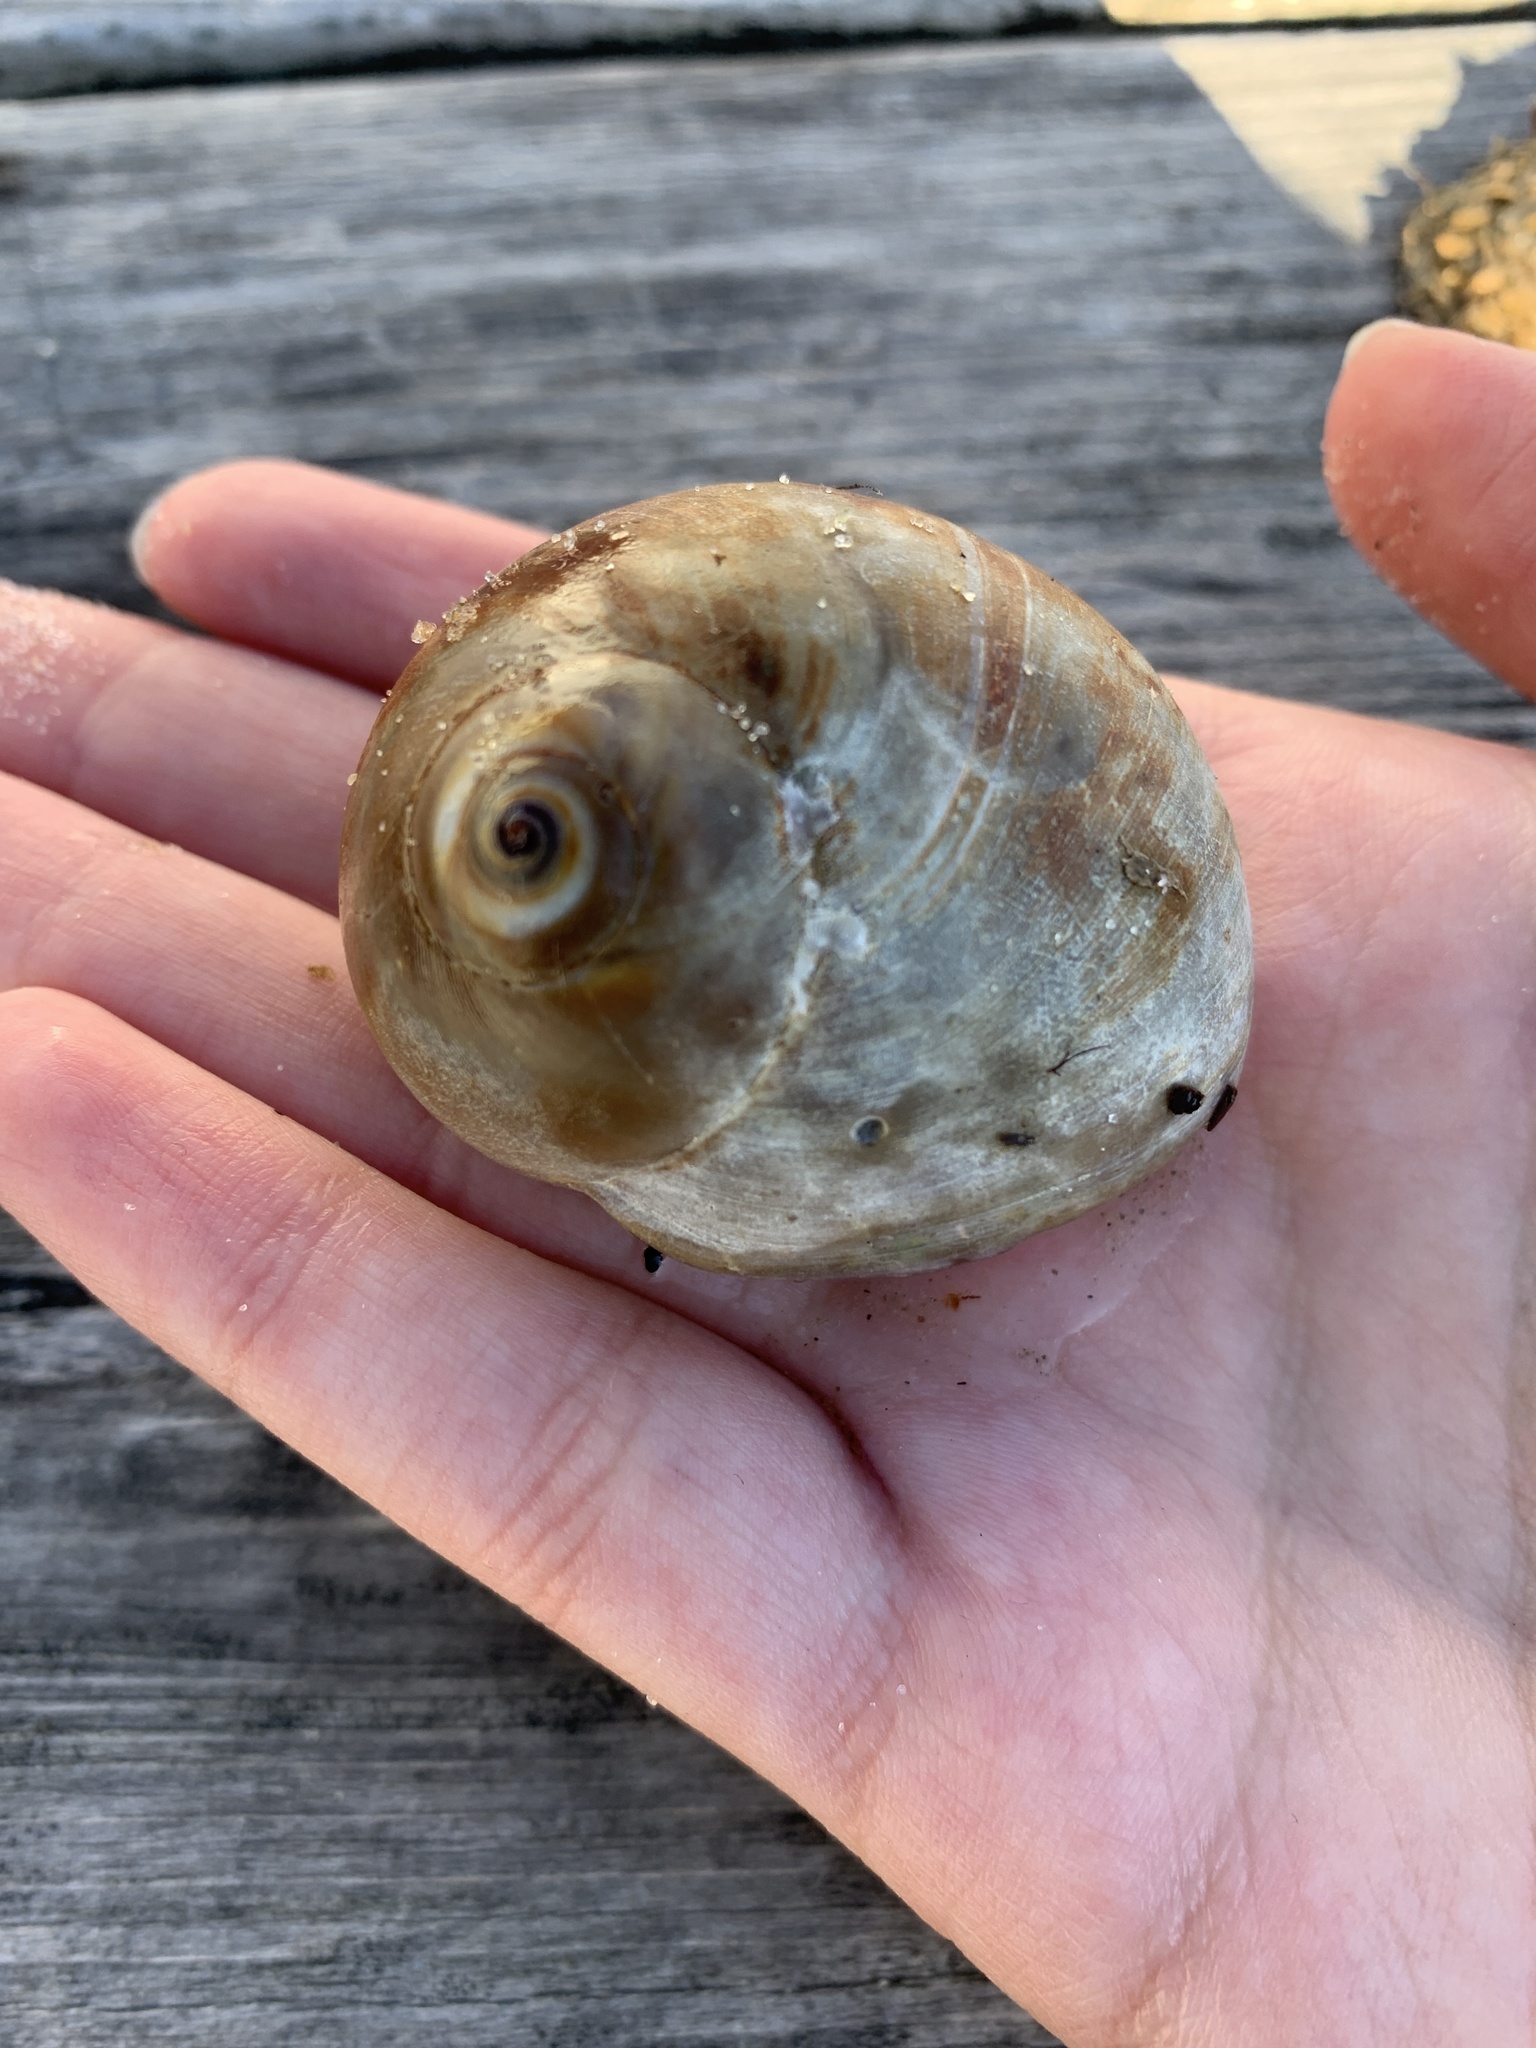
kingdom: Animalia
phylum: Mollusca
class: Gastropoda
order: Littorinimorpha
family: Naticidae
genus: Neverita
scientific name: Neverita duplicata
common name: Lobed moonsnail
